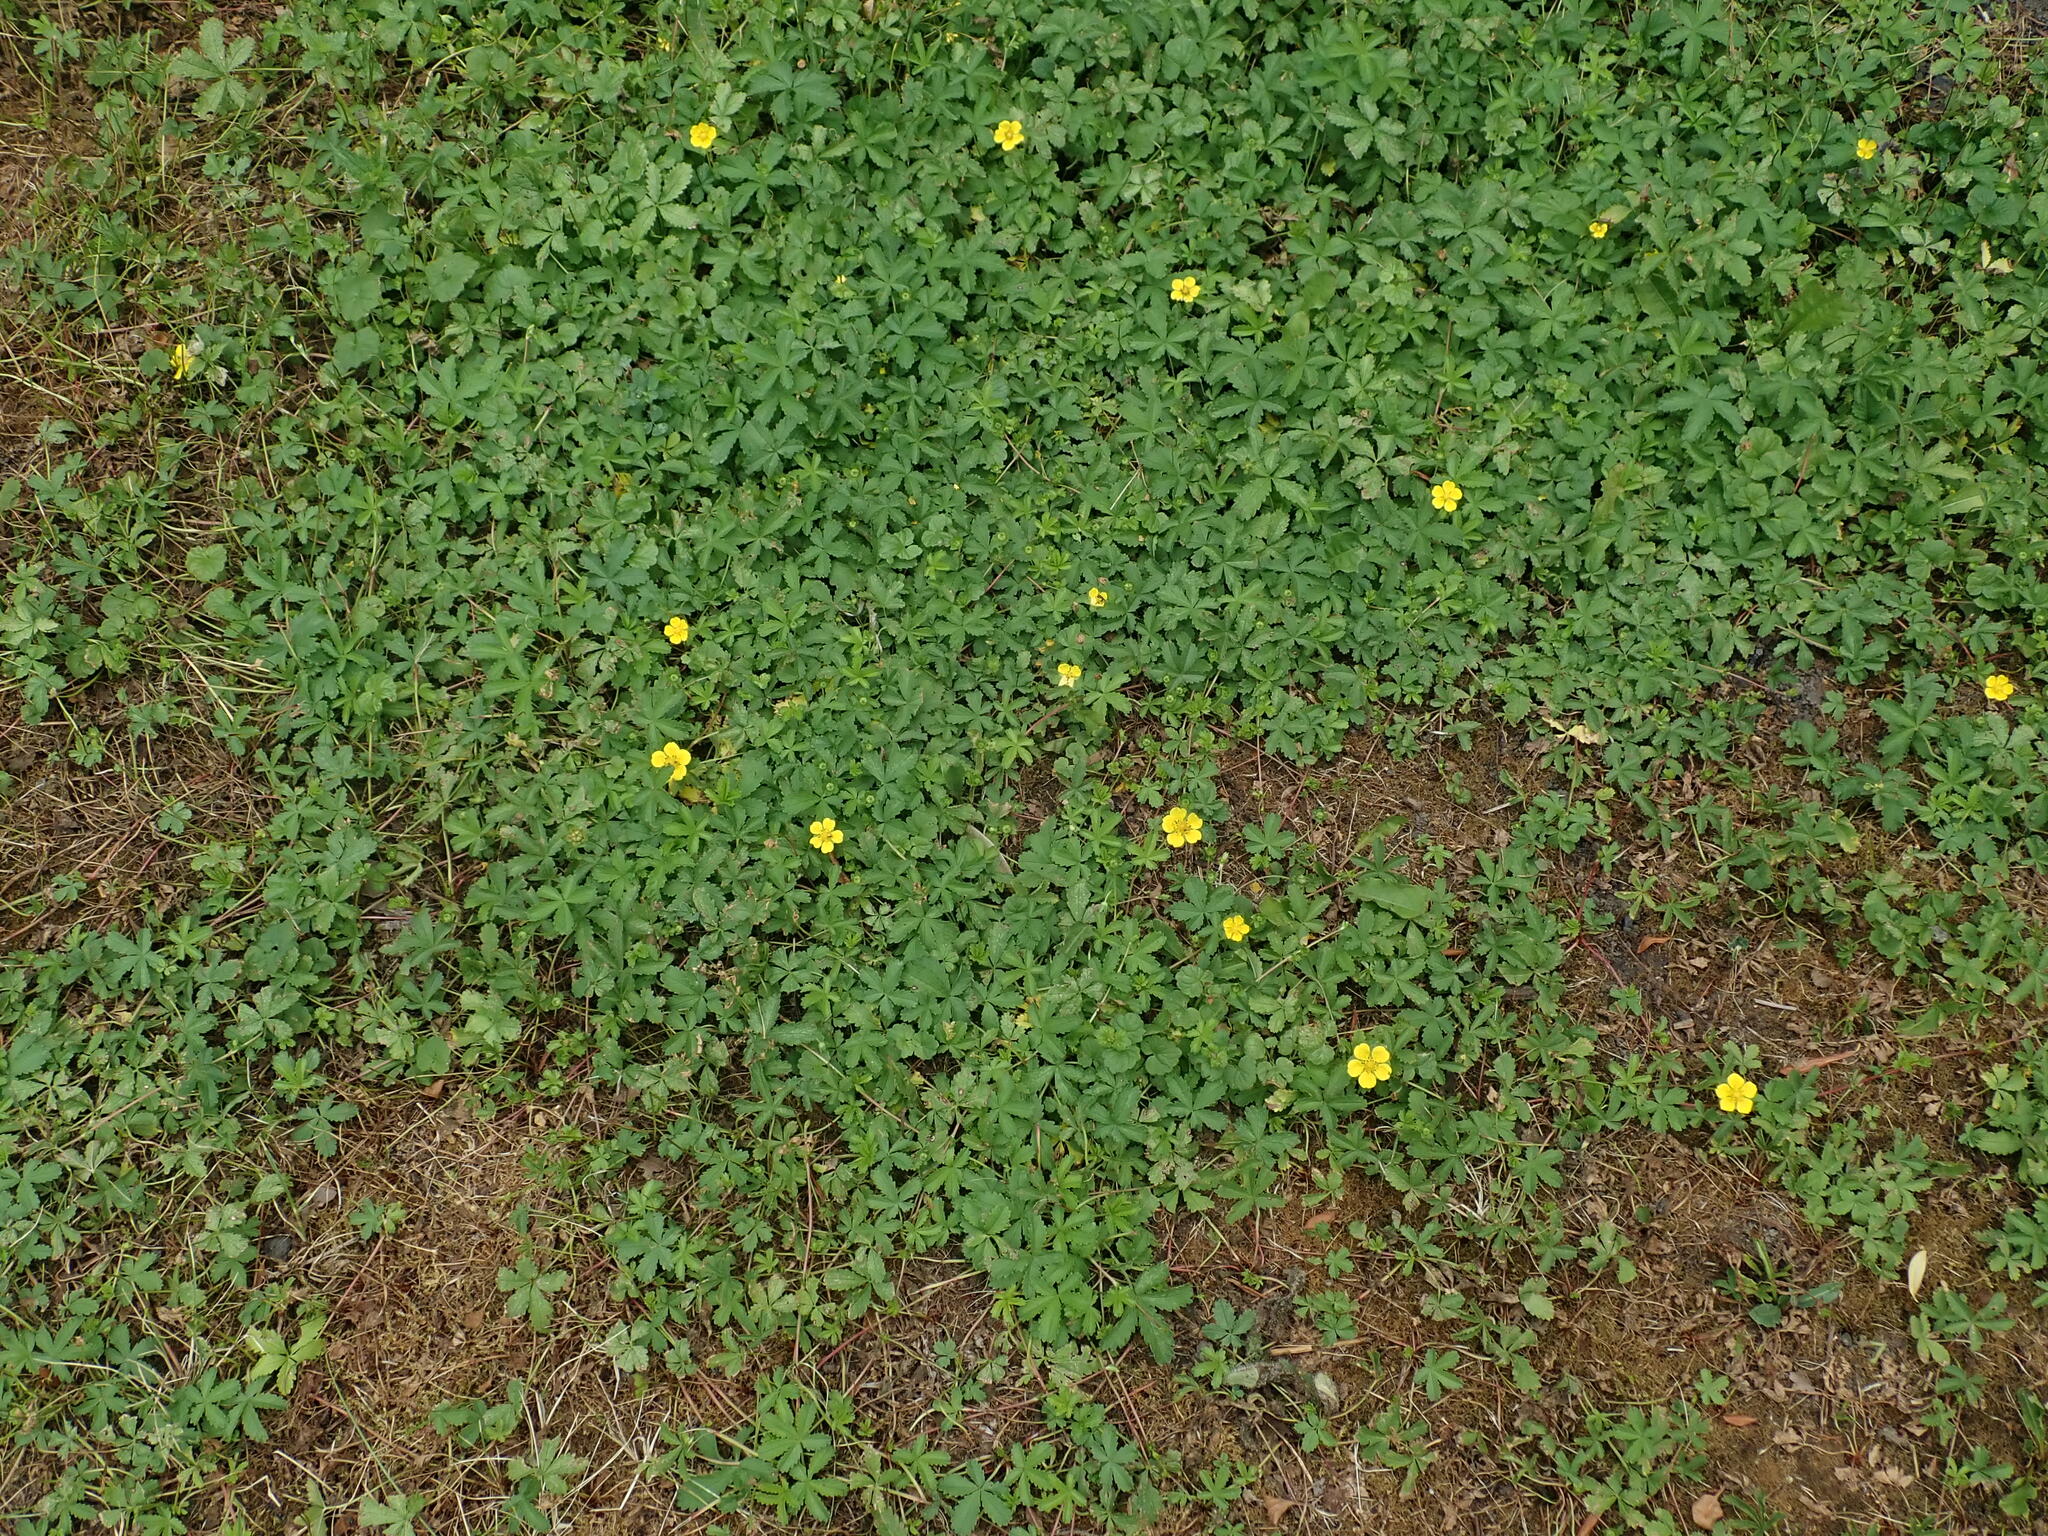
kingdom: Plantae
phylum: Tracheophyta
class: Magnoliopsida
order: Rosales
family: Rosaceae
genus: Potentilla
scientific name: Potentilla reptans
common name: Creeping cinquefoil
